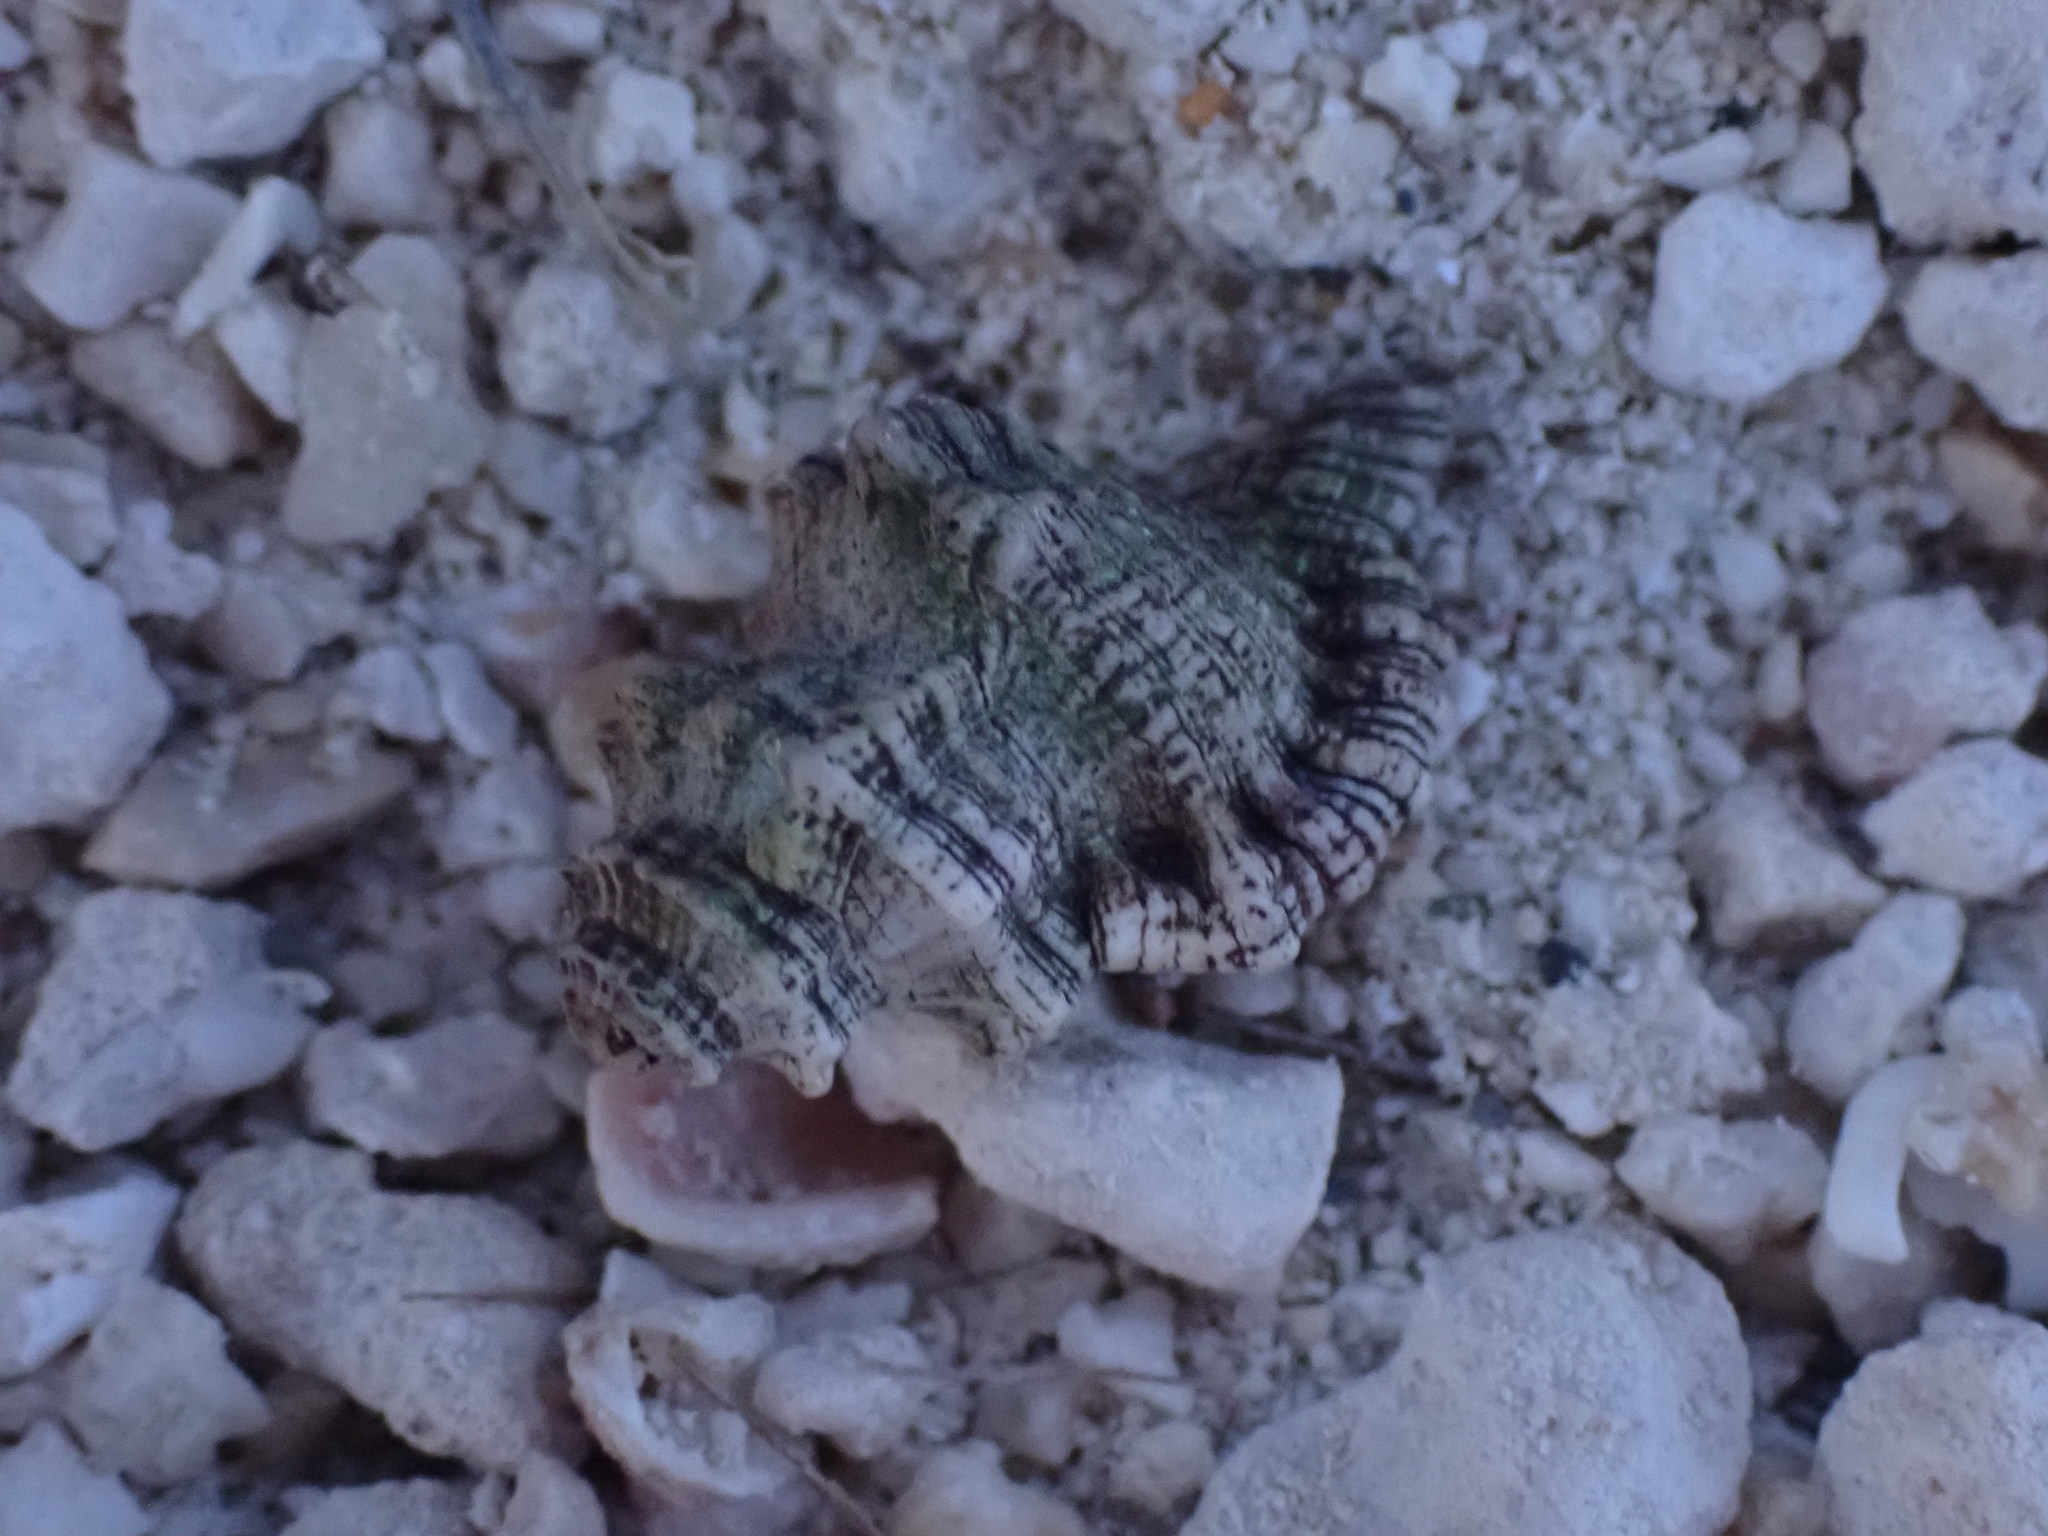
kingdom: Animalia
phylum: Mollusca
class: Gastropoda
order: Littorinimorpha
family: Cymatiidae
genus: Monoplex
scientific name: Monoplex nicobaricus
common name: Goldmouth triton
